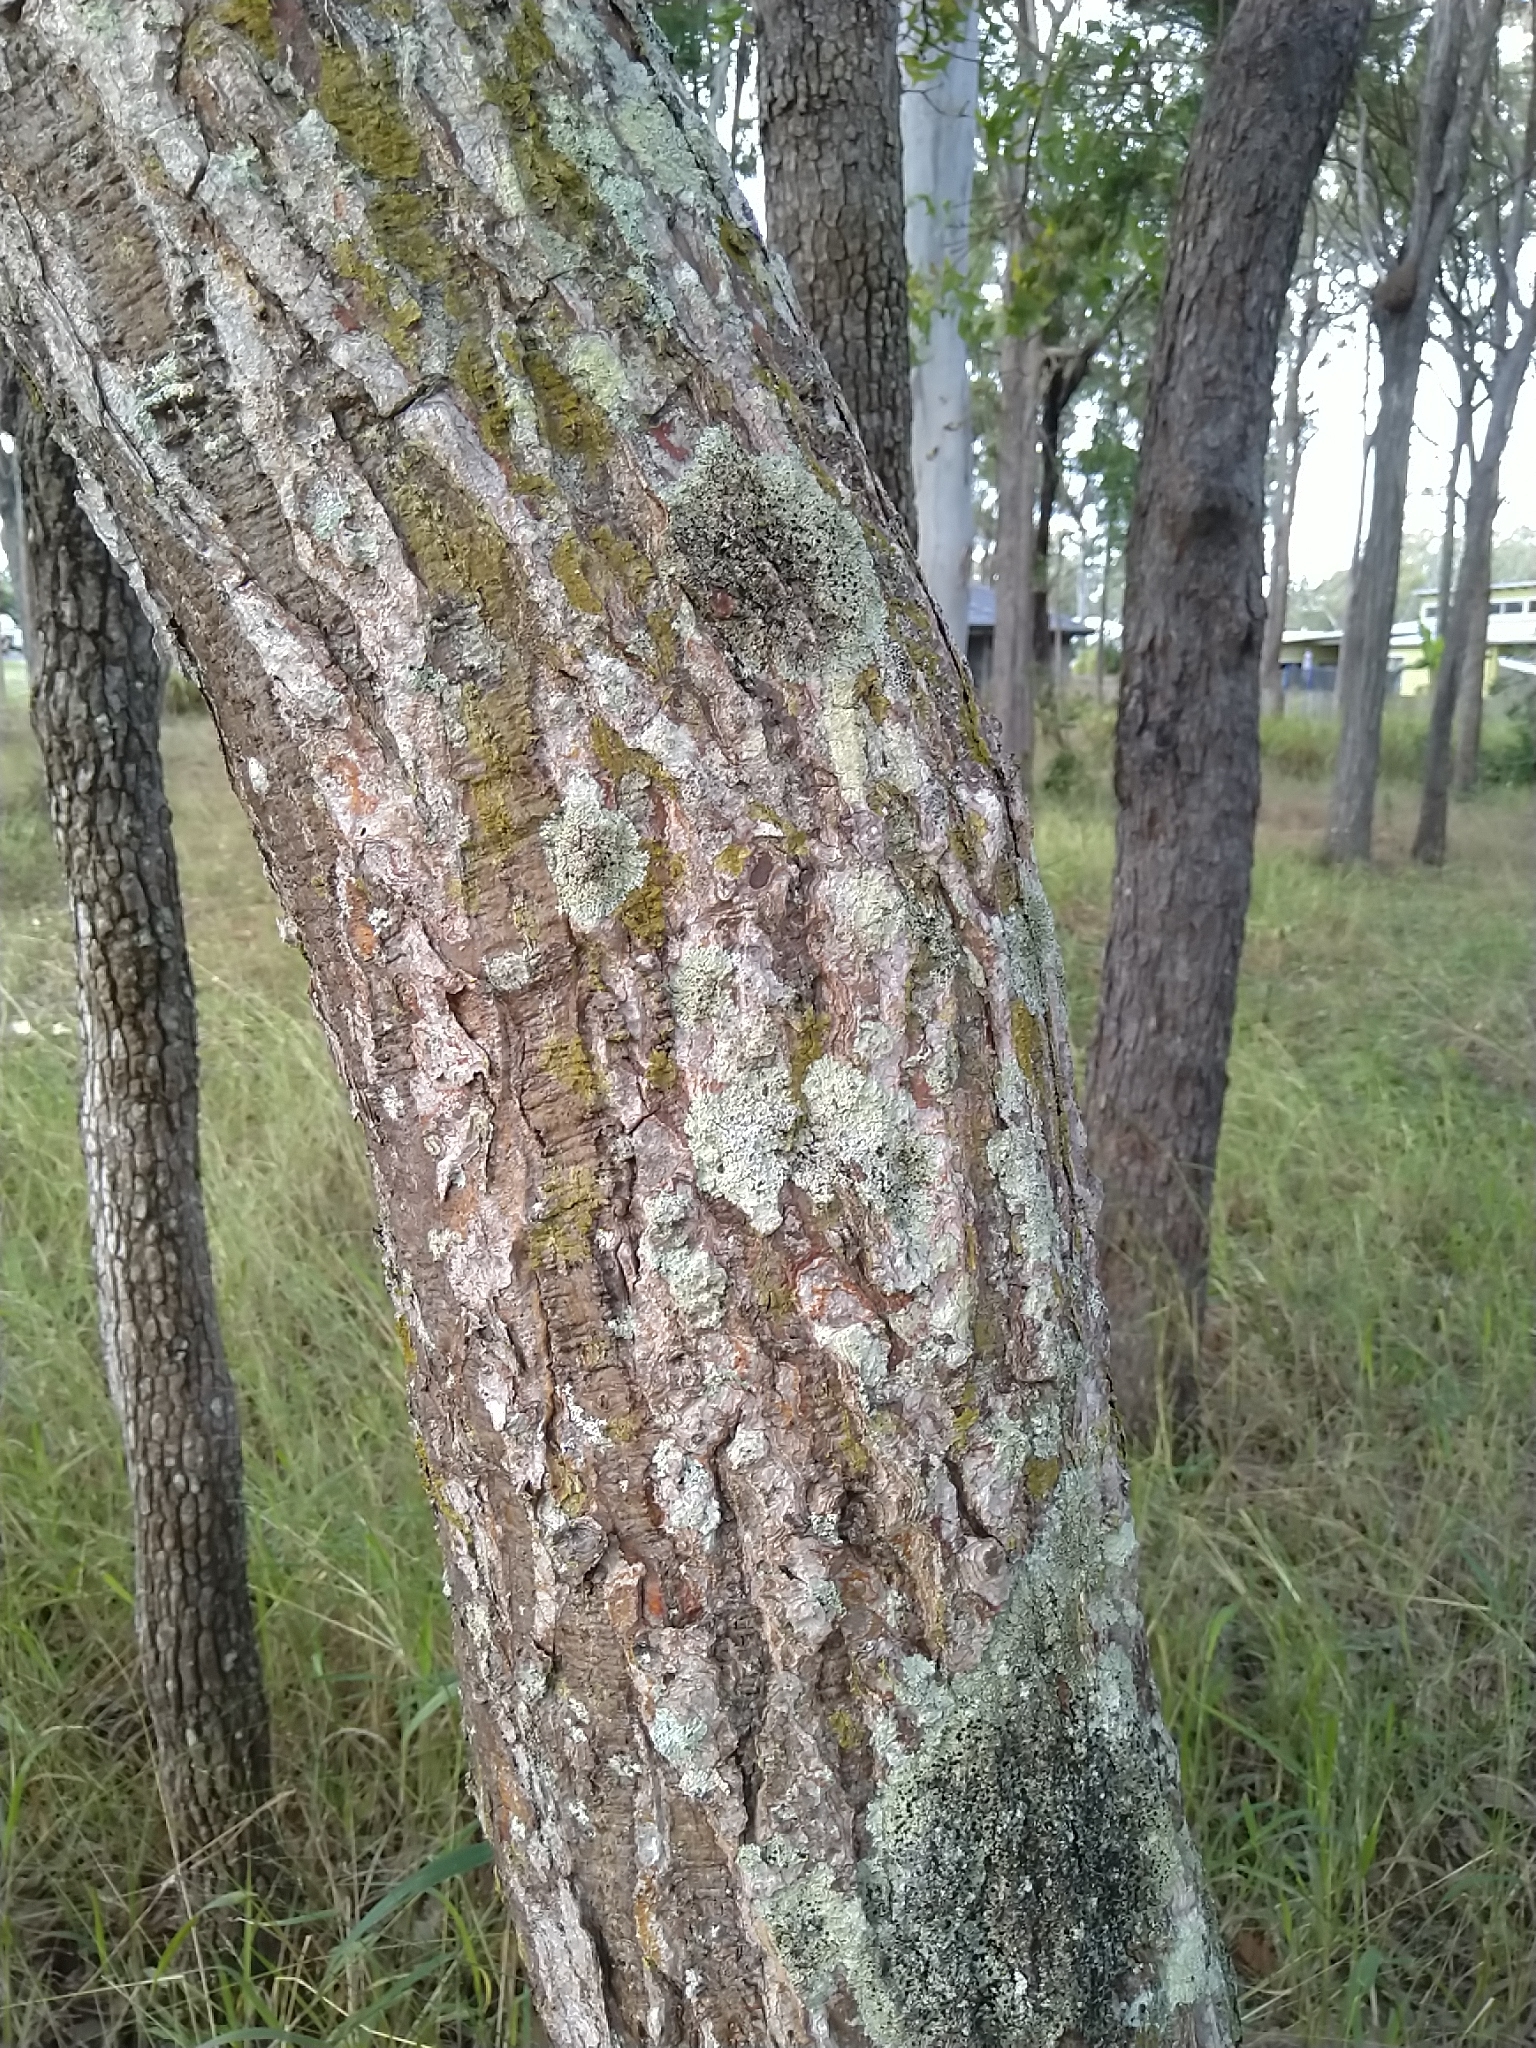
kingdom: Plantae
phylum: Tracheophyta
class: Magnoliopsida
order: Fabales
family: Fabaceae
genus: Erythrina
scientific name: Erythrina vespertilio
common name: Bat-wing coral tree
